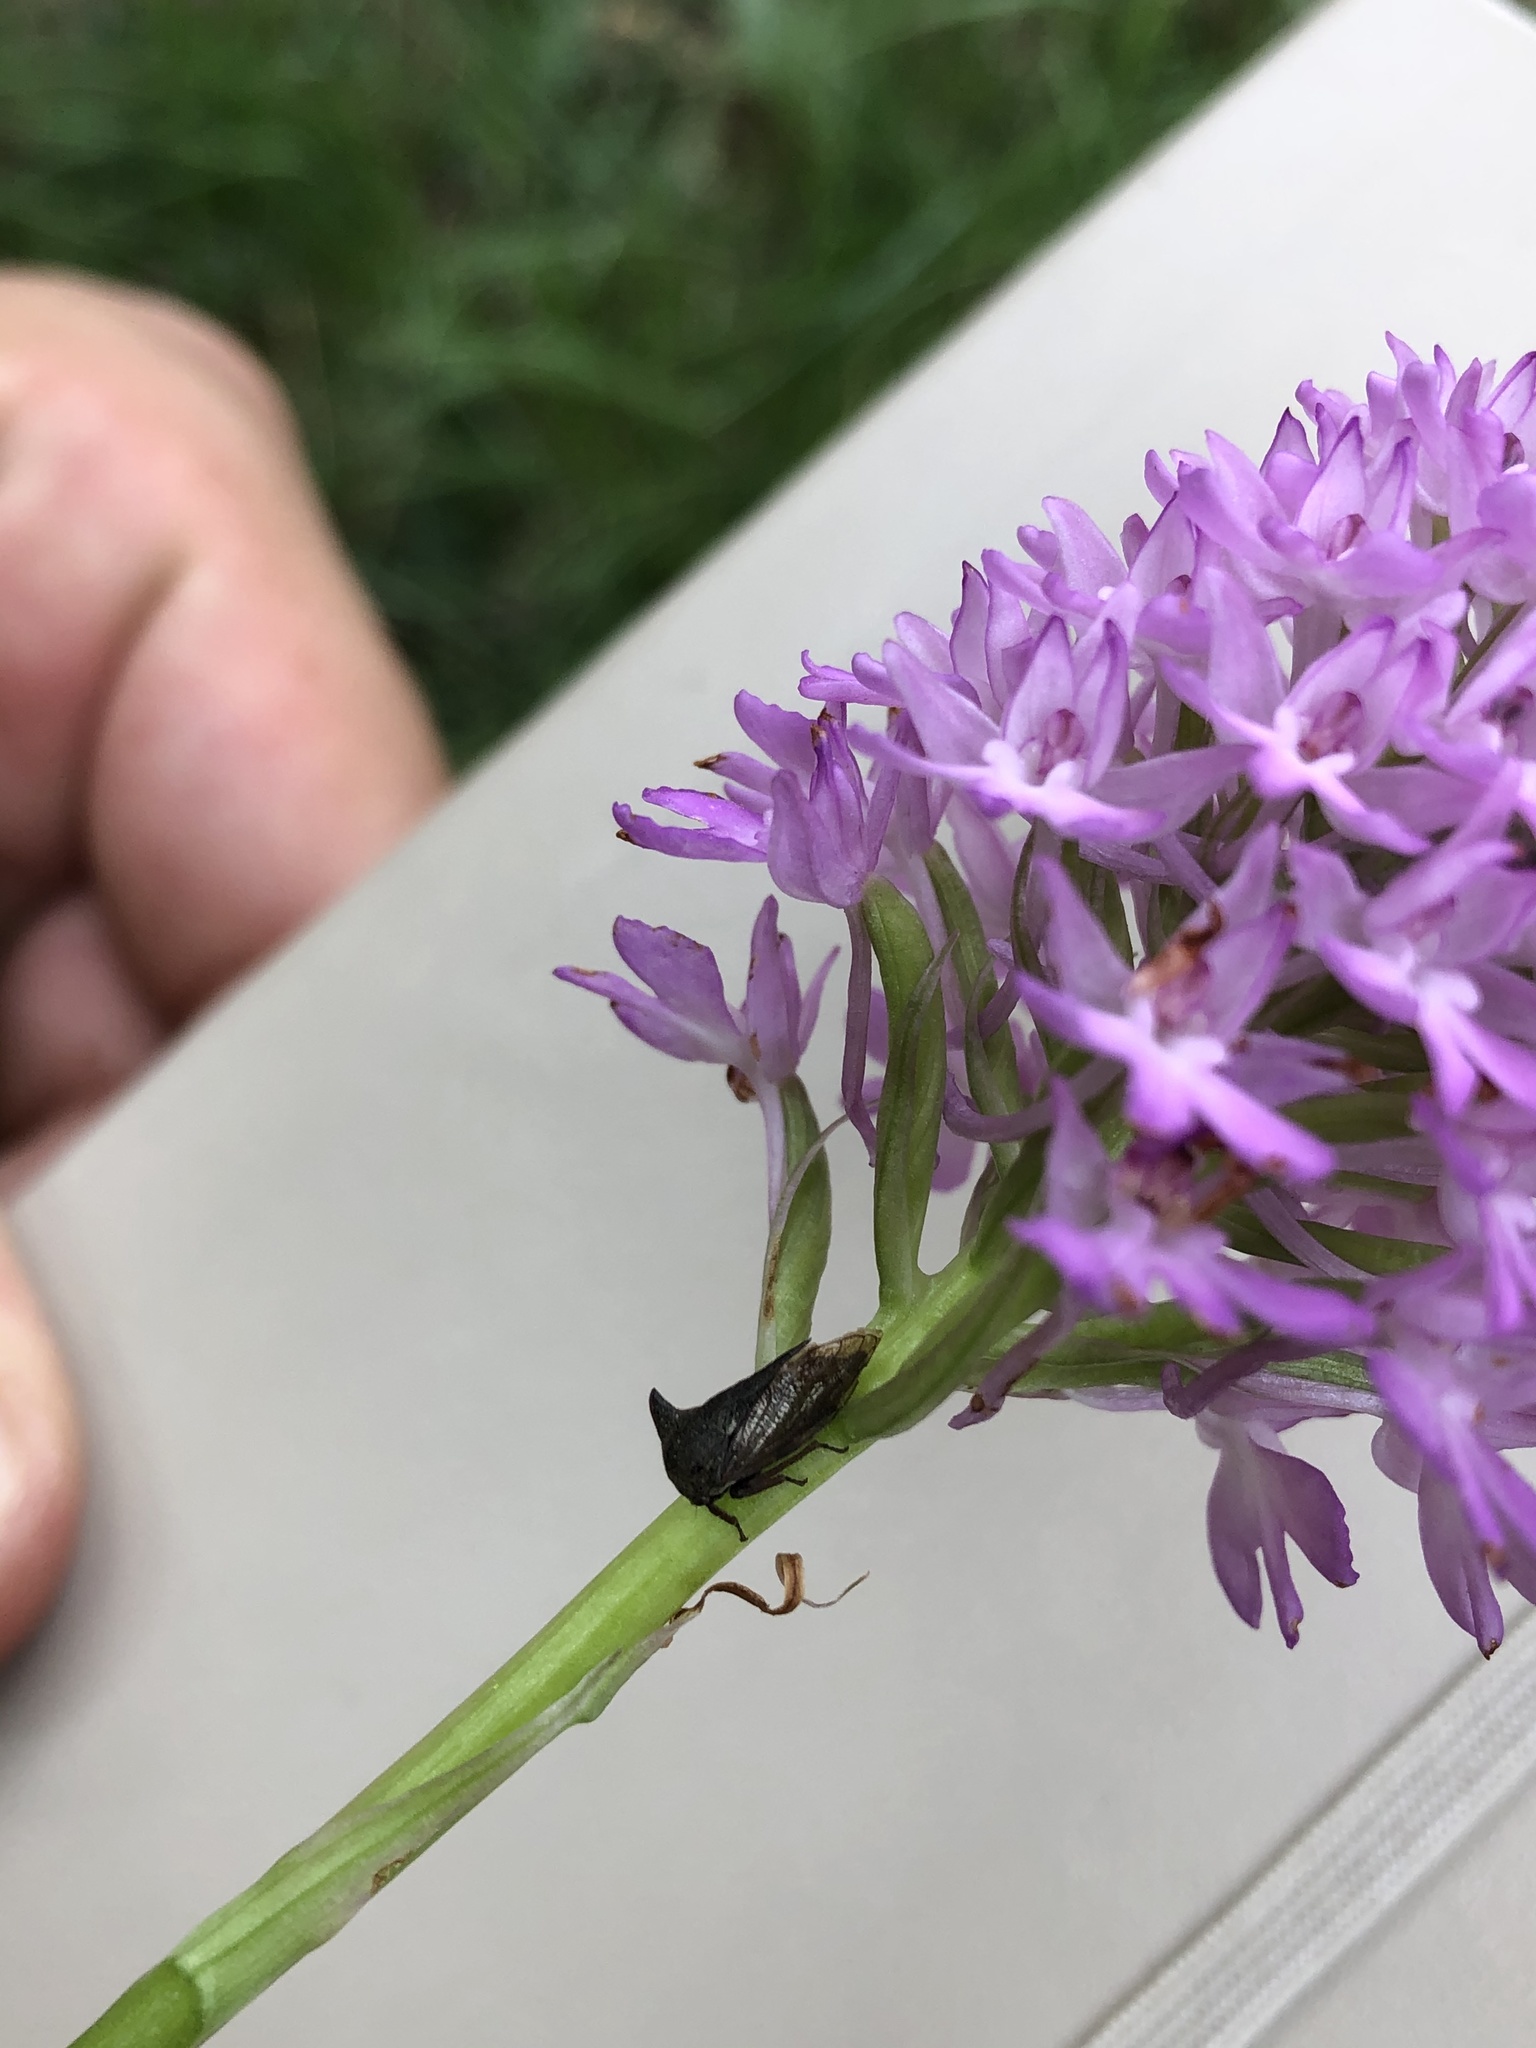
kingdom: Animalia
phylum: Arthropoda
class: Insecta
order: Hemiptera
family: Membracidae
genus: Centrotus
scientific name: Centrotus cornuta
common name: Treehopper
